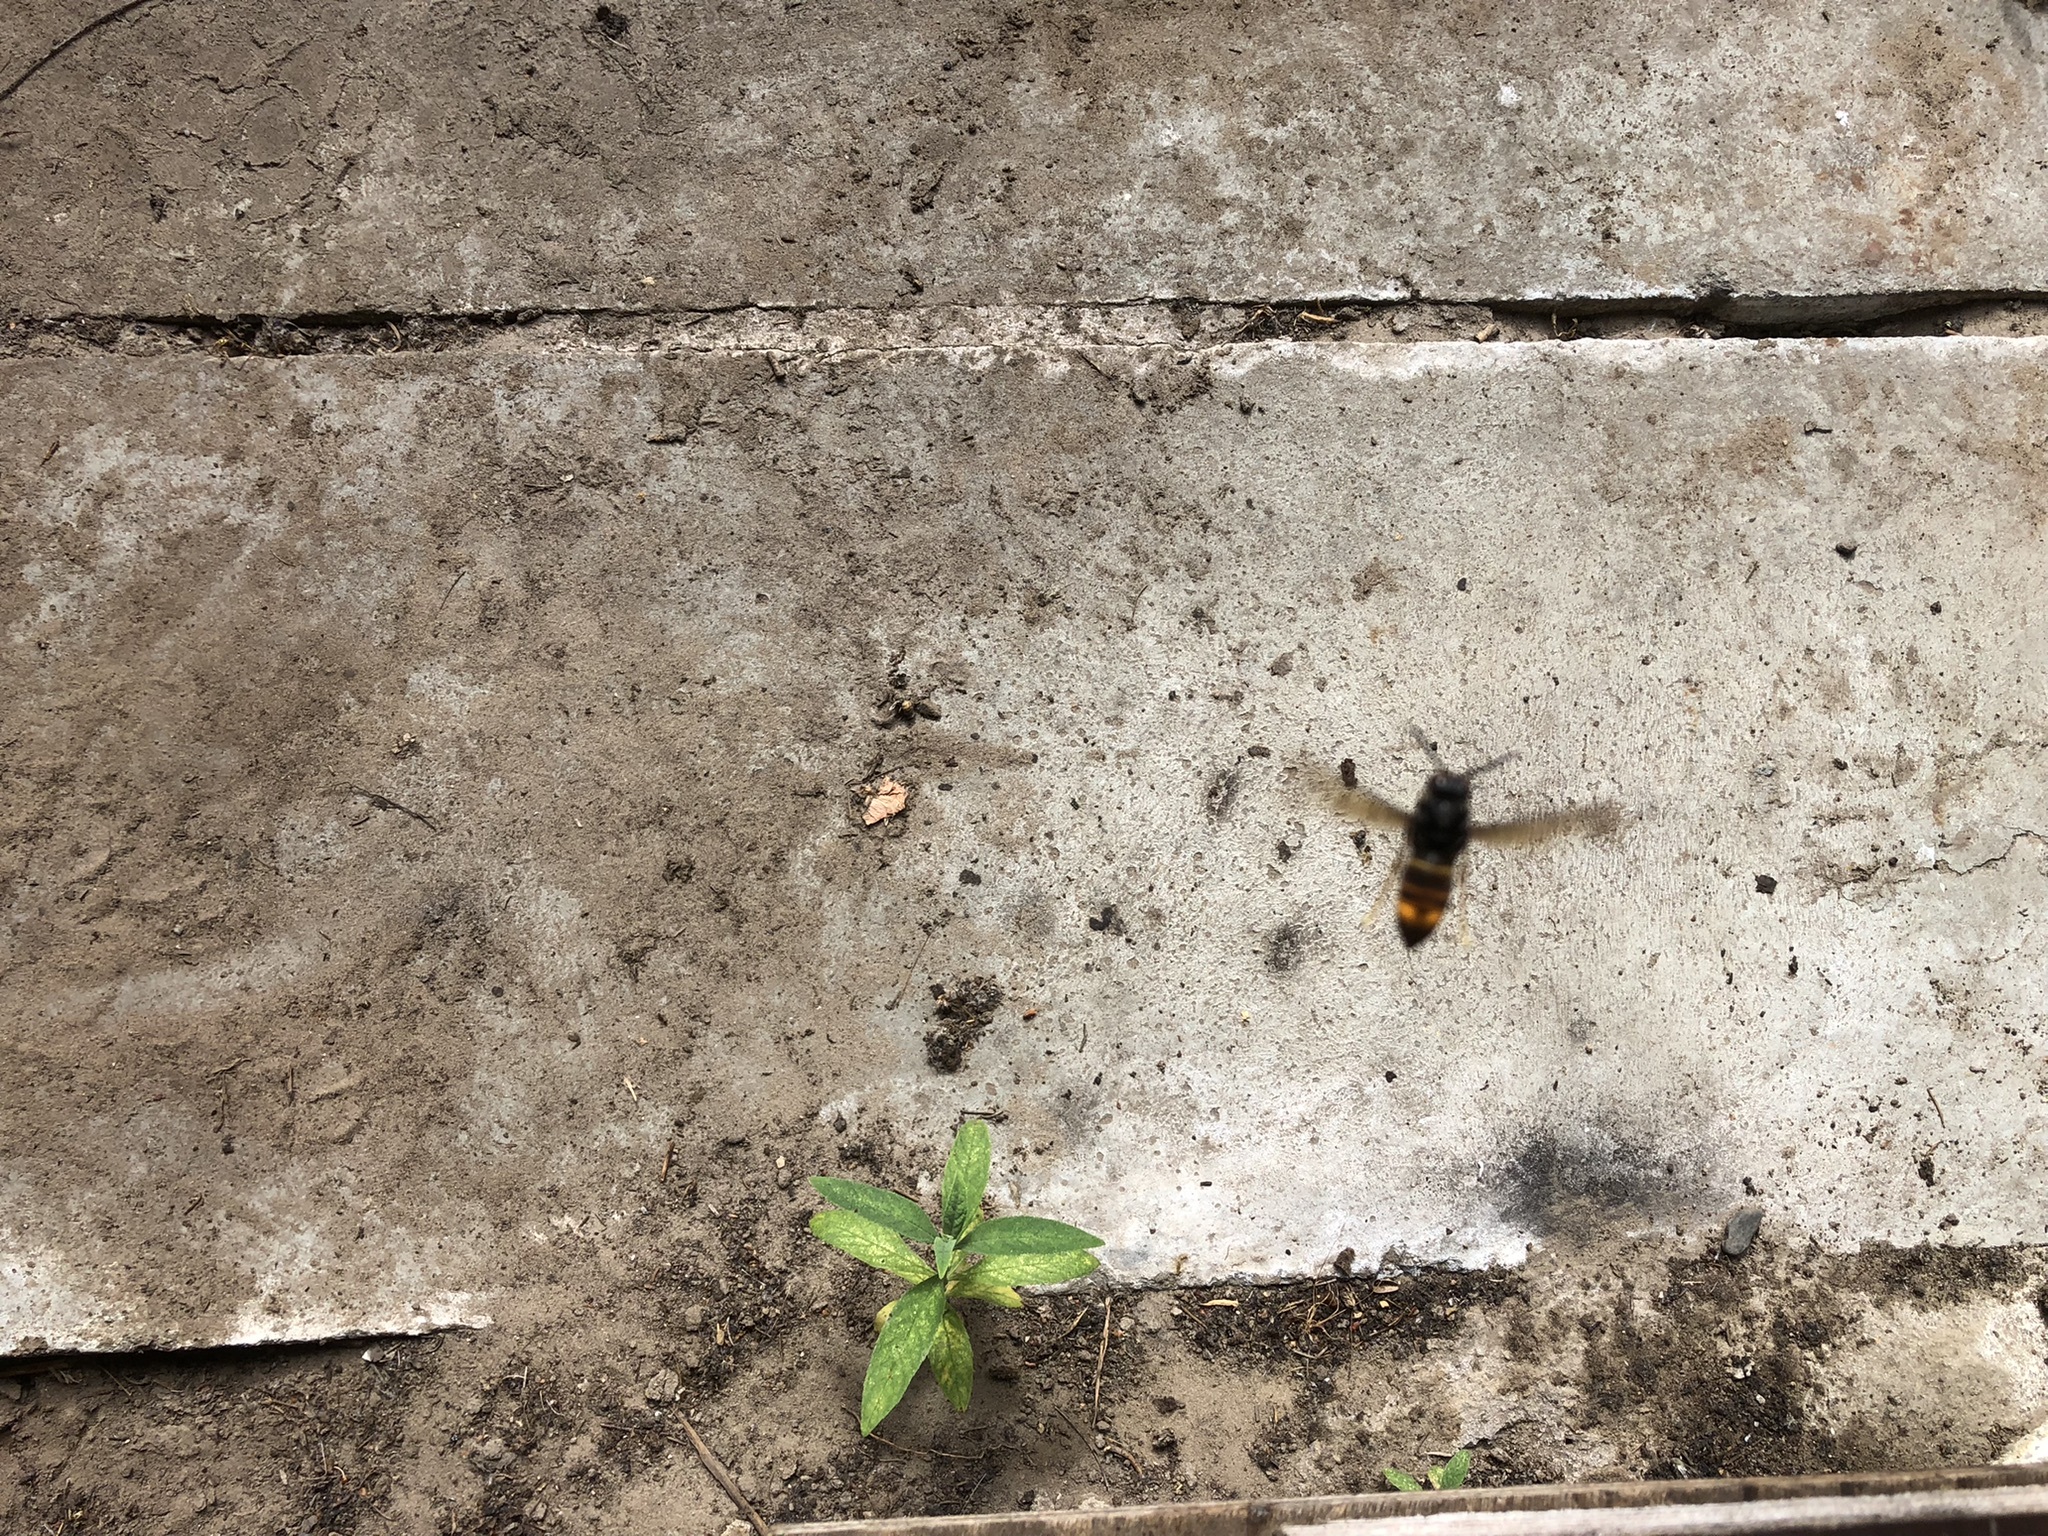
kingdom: Animalia
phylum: Arthropoda
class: Insecta
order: Hymenoptera
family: Vespidae
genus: Vespa
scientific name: Vespa velutina
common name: Asian hornet
